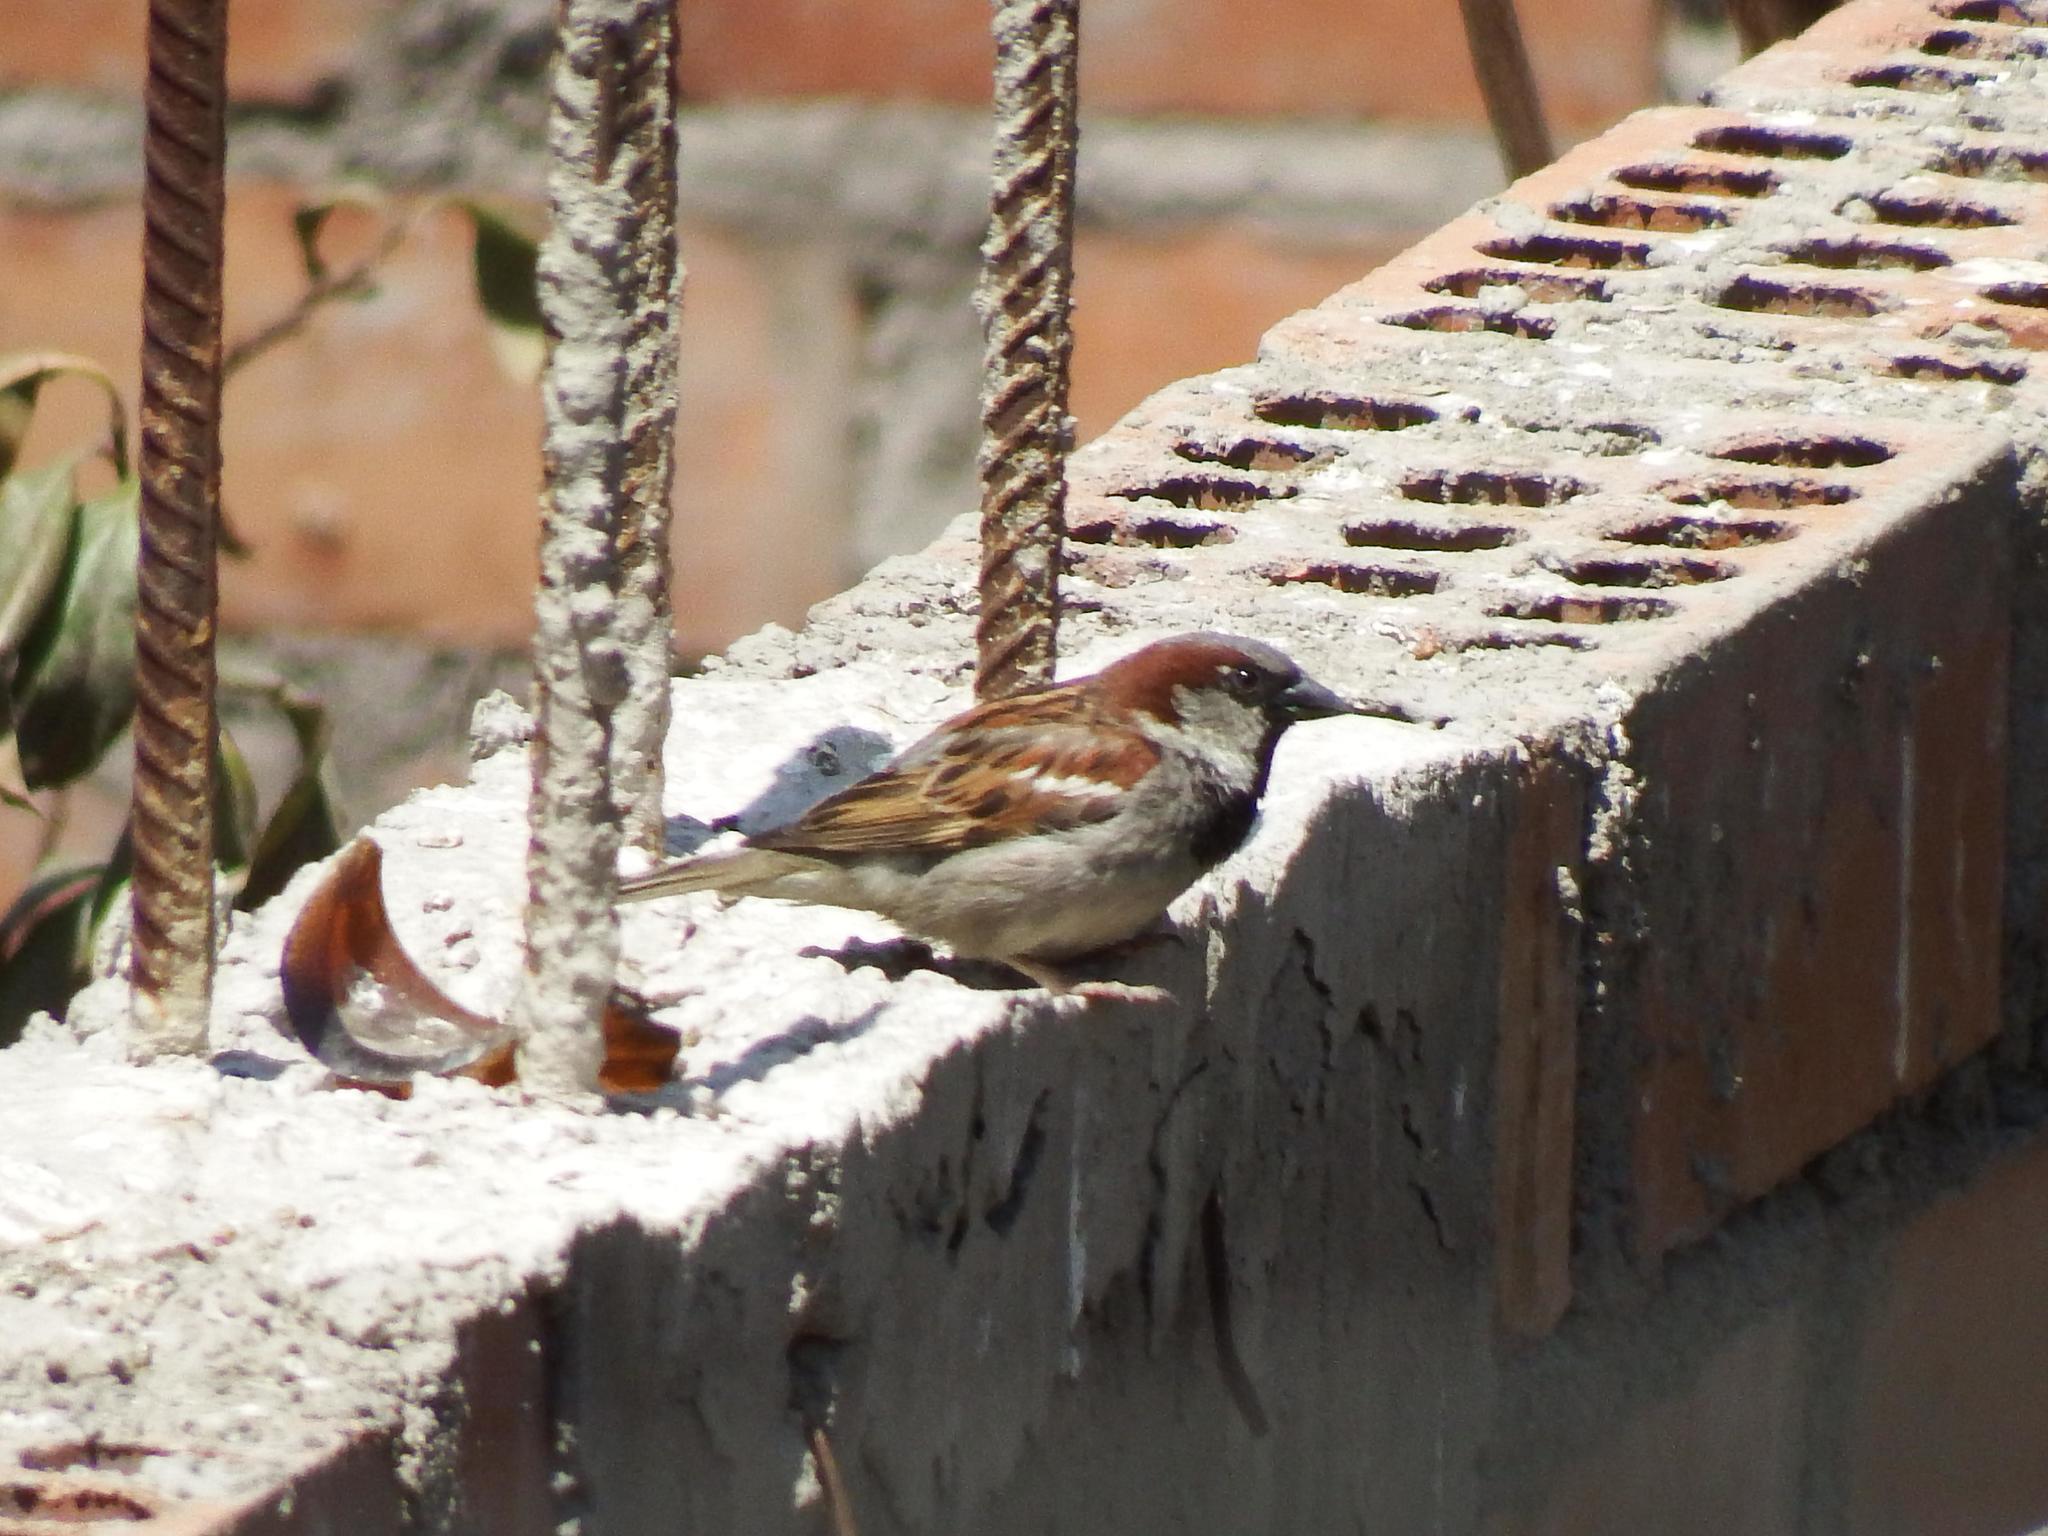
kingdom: Animalia
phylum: Chordata
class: Aves
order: Passeriformes
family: Passeridae
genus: Passer
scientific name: Passer domesticus
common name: House sparrow
